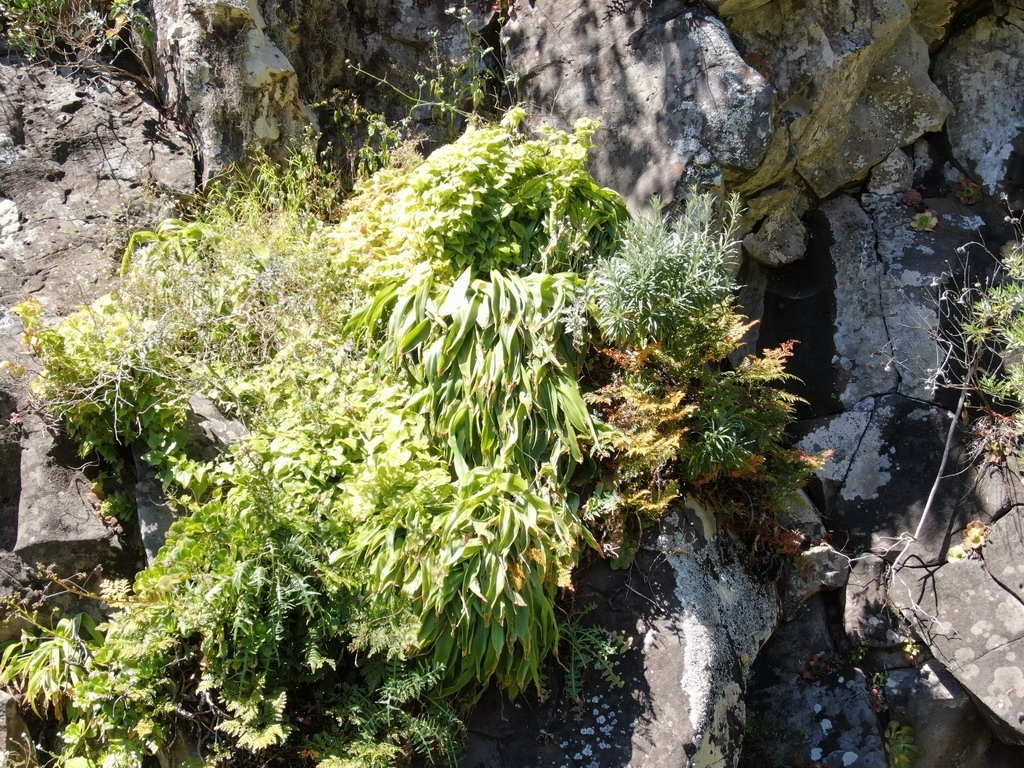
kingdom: Plantae
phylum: Tracheophyta
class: Liliopsida
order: Asparagales
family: Asparagaceae
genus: Scilla
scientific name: Scilla madeirensis
